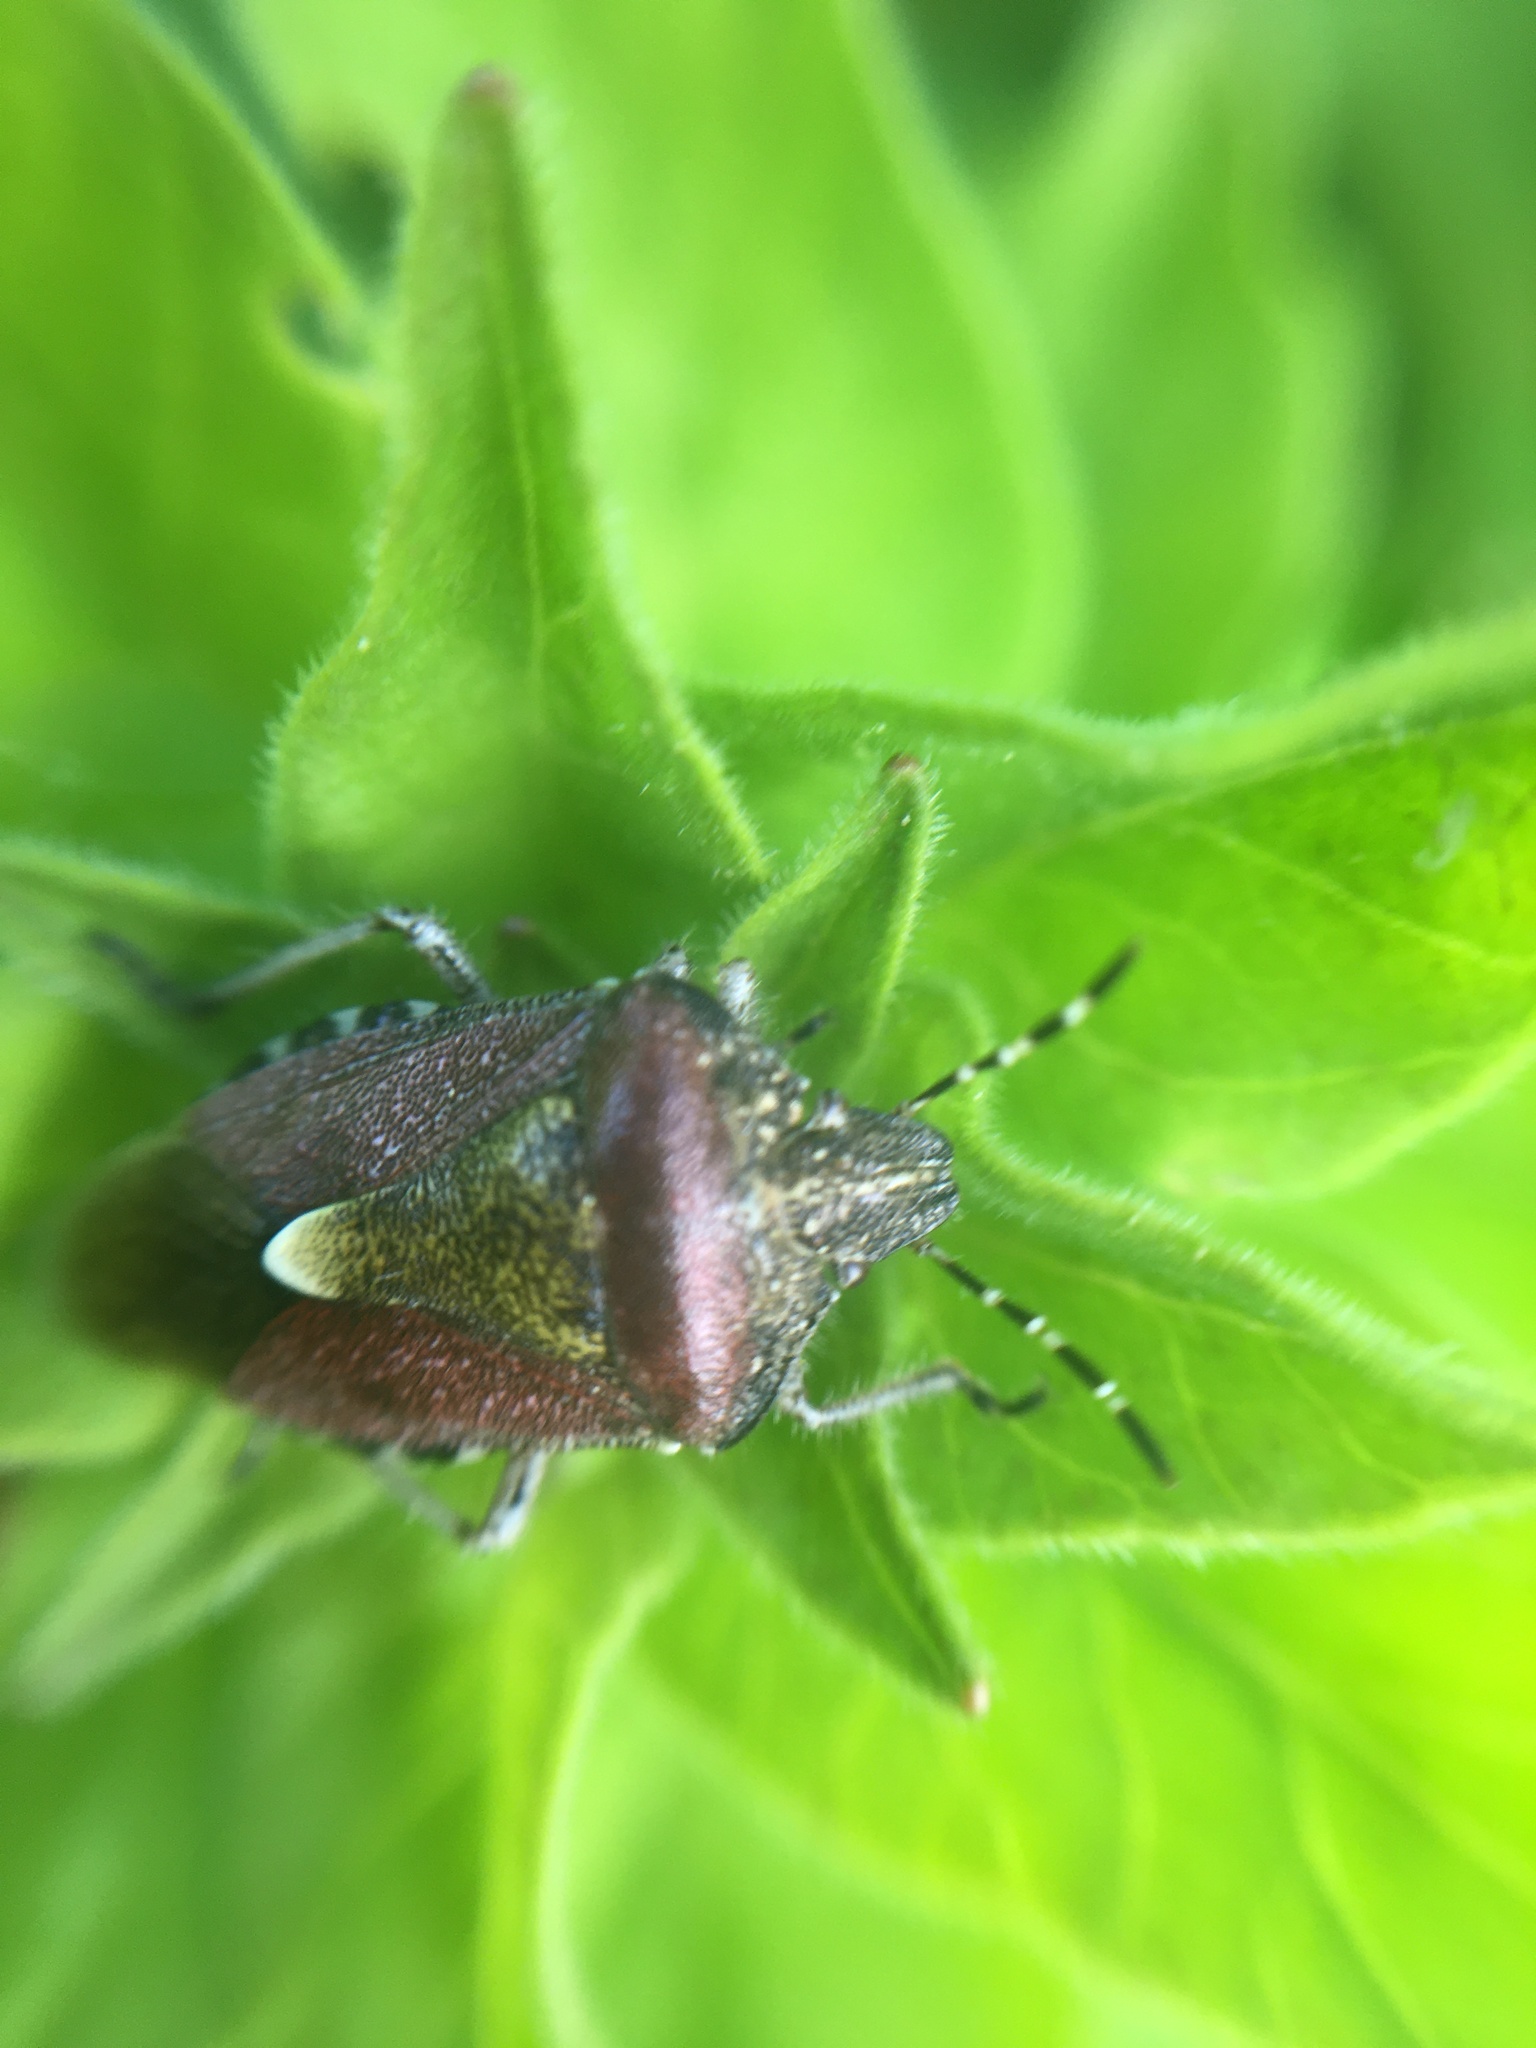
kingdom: Animalia
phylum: Arthropoda
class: Insecta
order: Hemiptera
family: Pentatomidae
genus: Dolycoris
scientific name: Dolycoris baccarum
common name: Sloe bug
